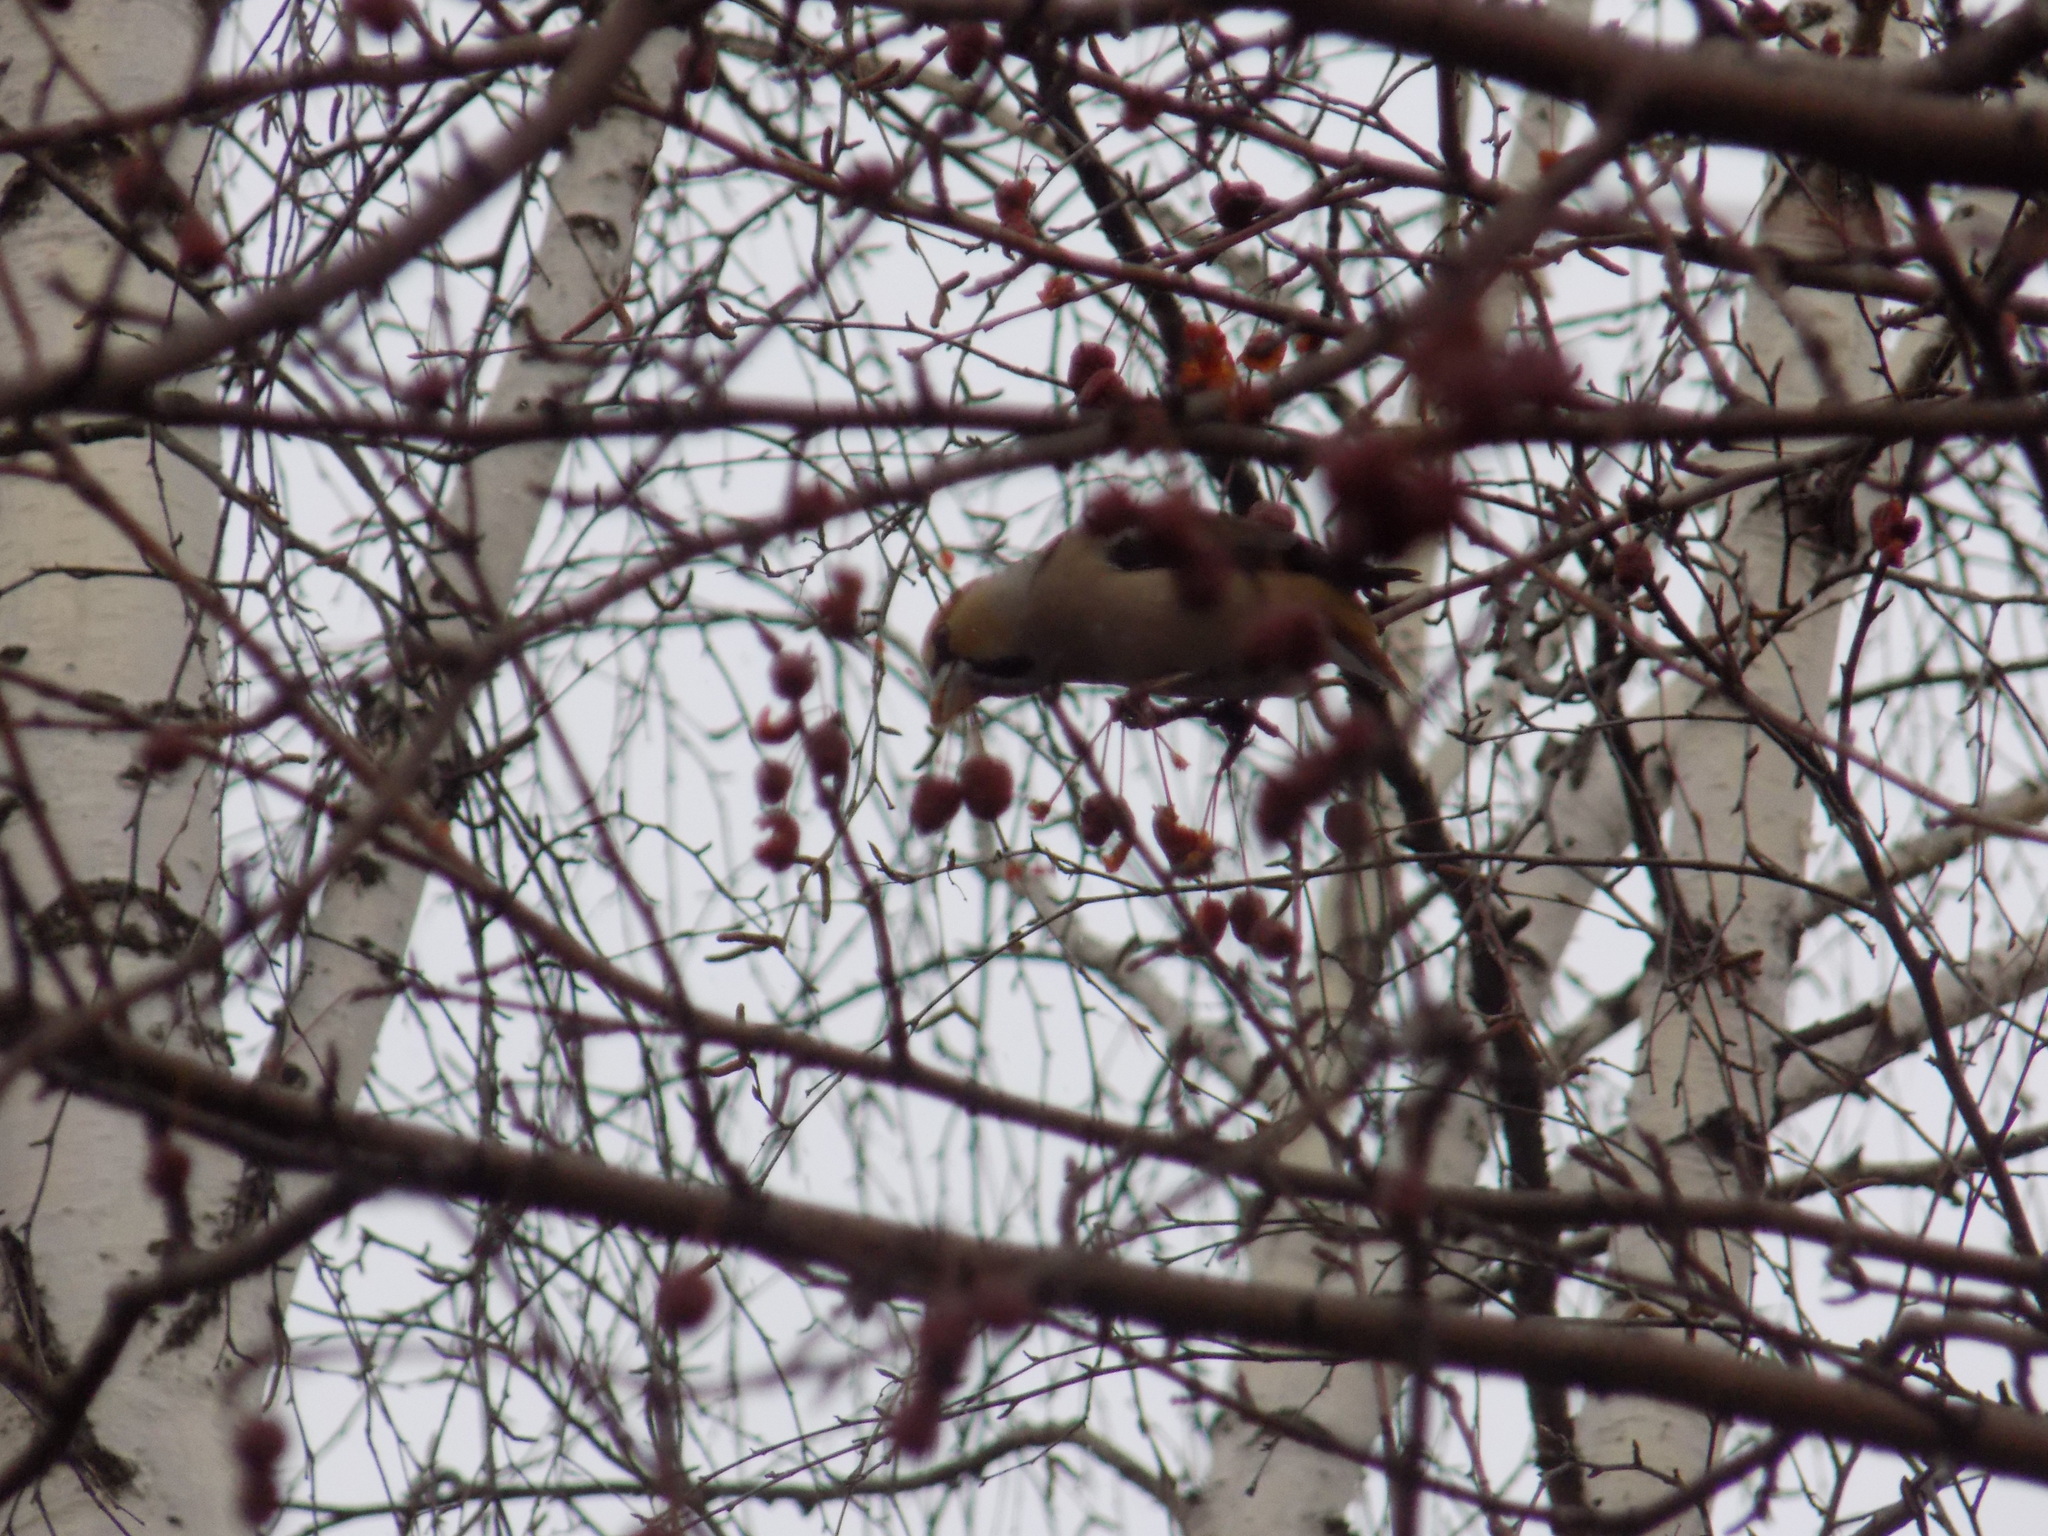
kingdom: Animalia
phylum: Chordata
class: Aves
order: Passeriformes
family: Fringillidae
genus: Coccothraustes
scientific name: Coccothraustes coccothraustes
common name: Hawfinch
